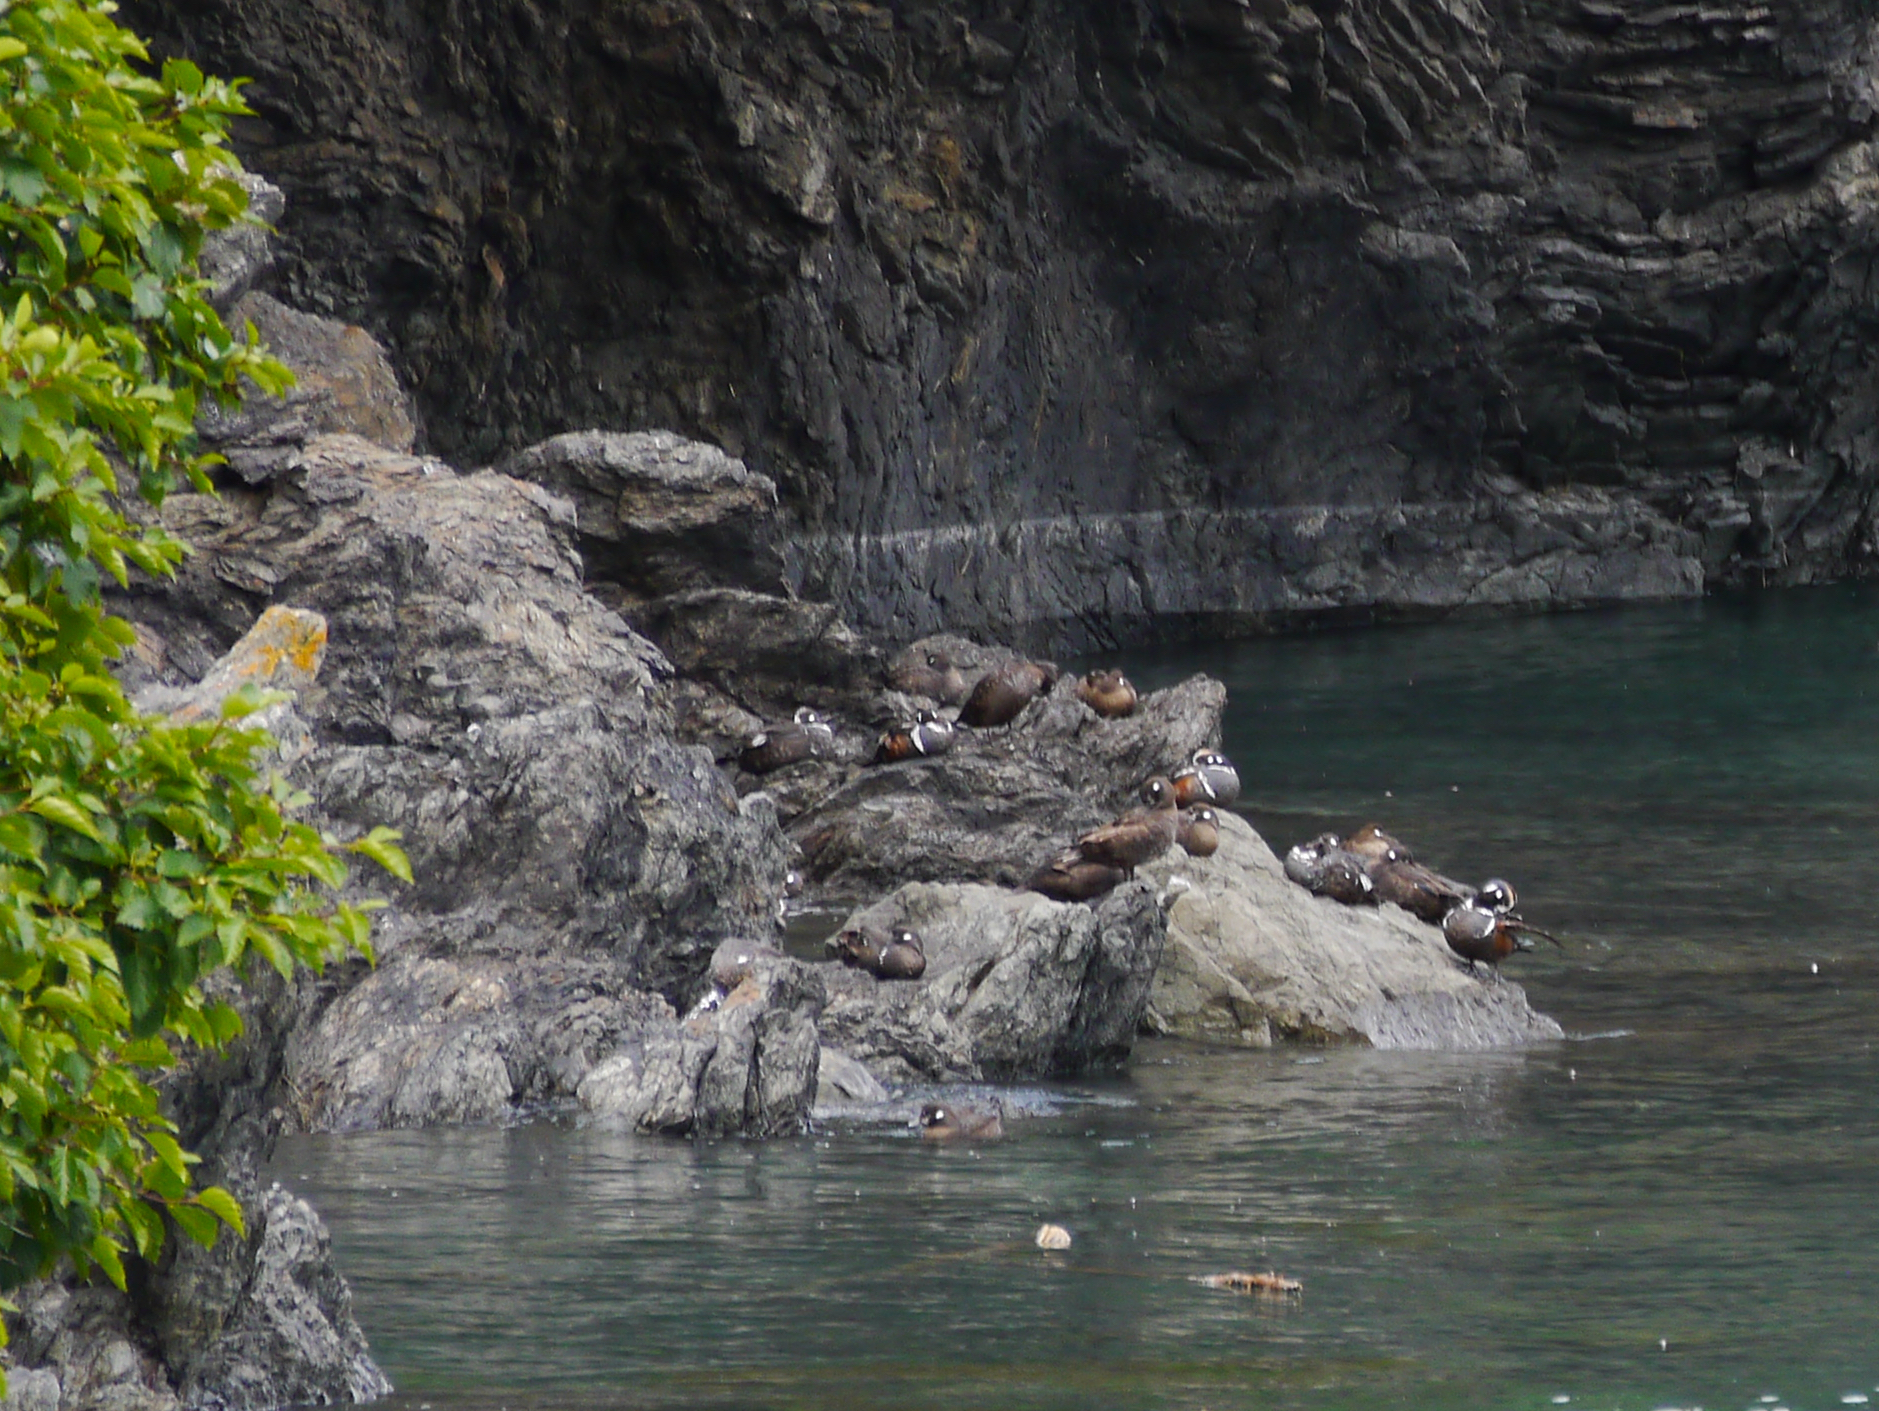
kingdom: Animalia
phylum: Chordata
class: Aves
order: Anseriformes
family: Anatidae
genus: Histrionicus
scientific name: Histrionicus histrionicus
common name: Harlequin duck
